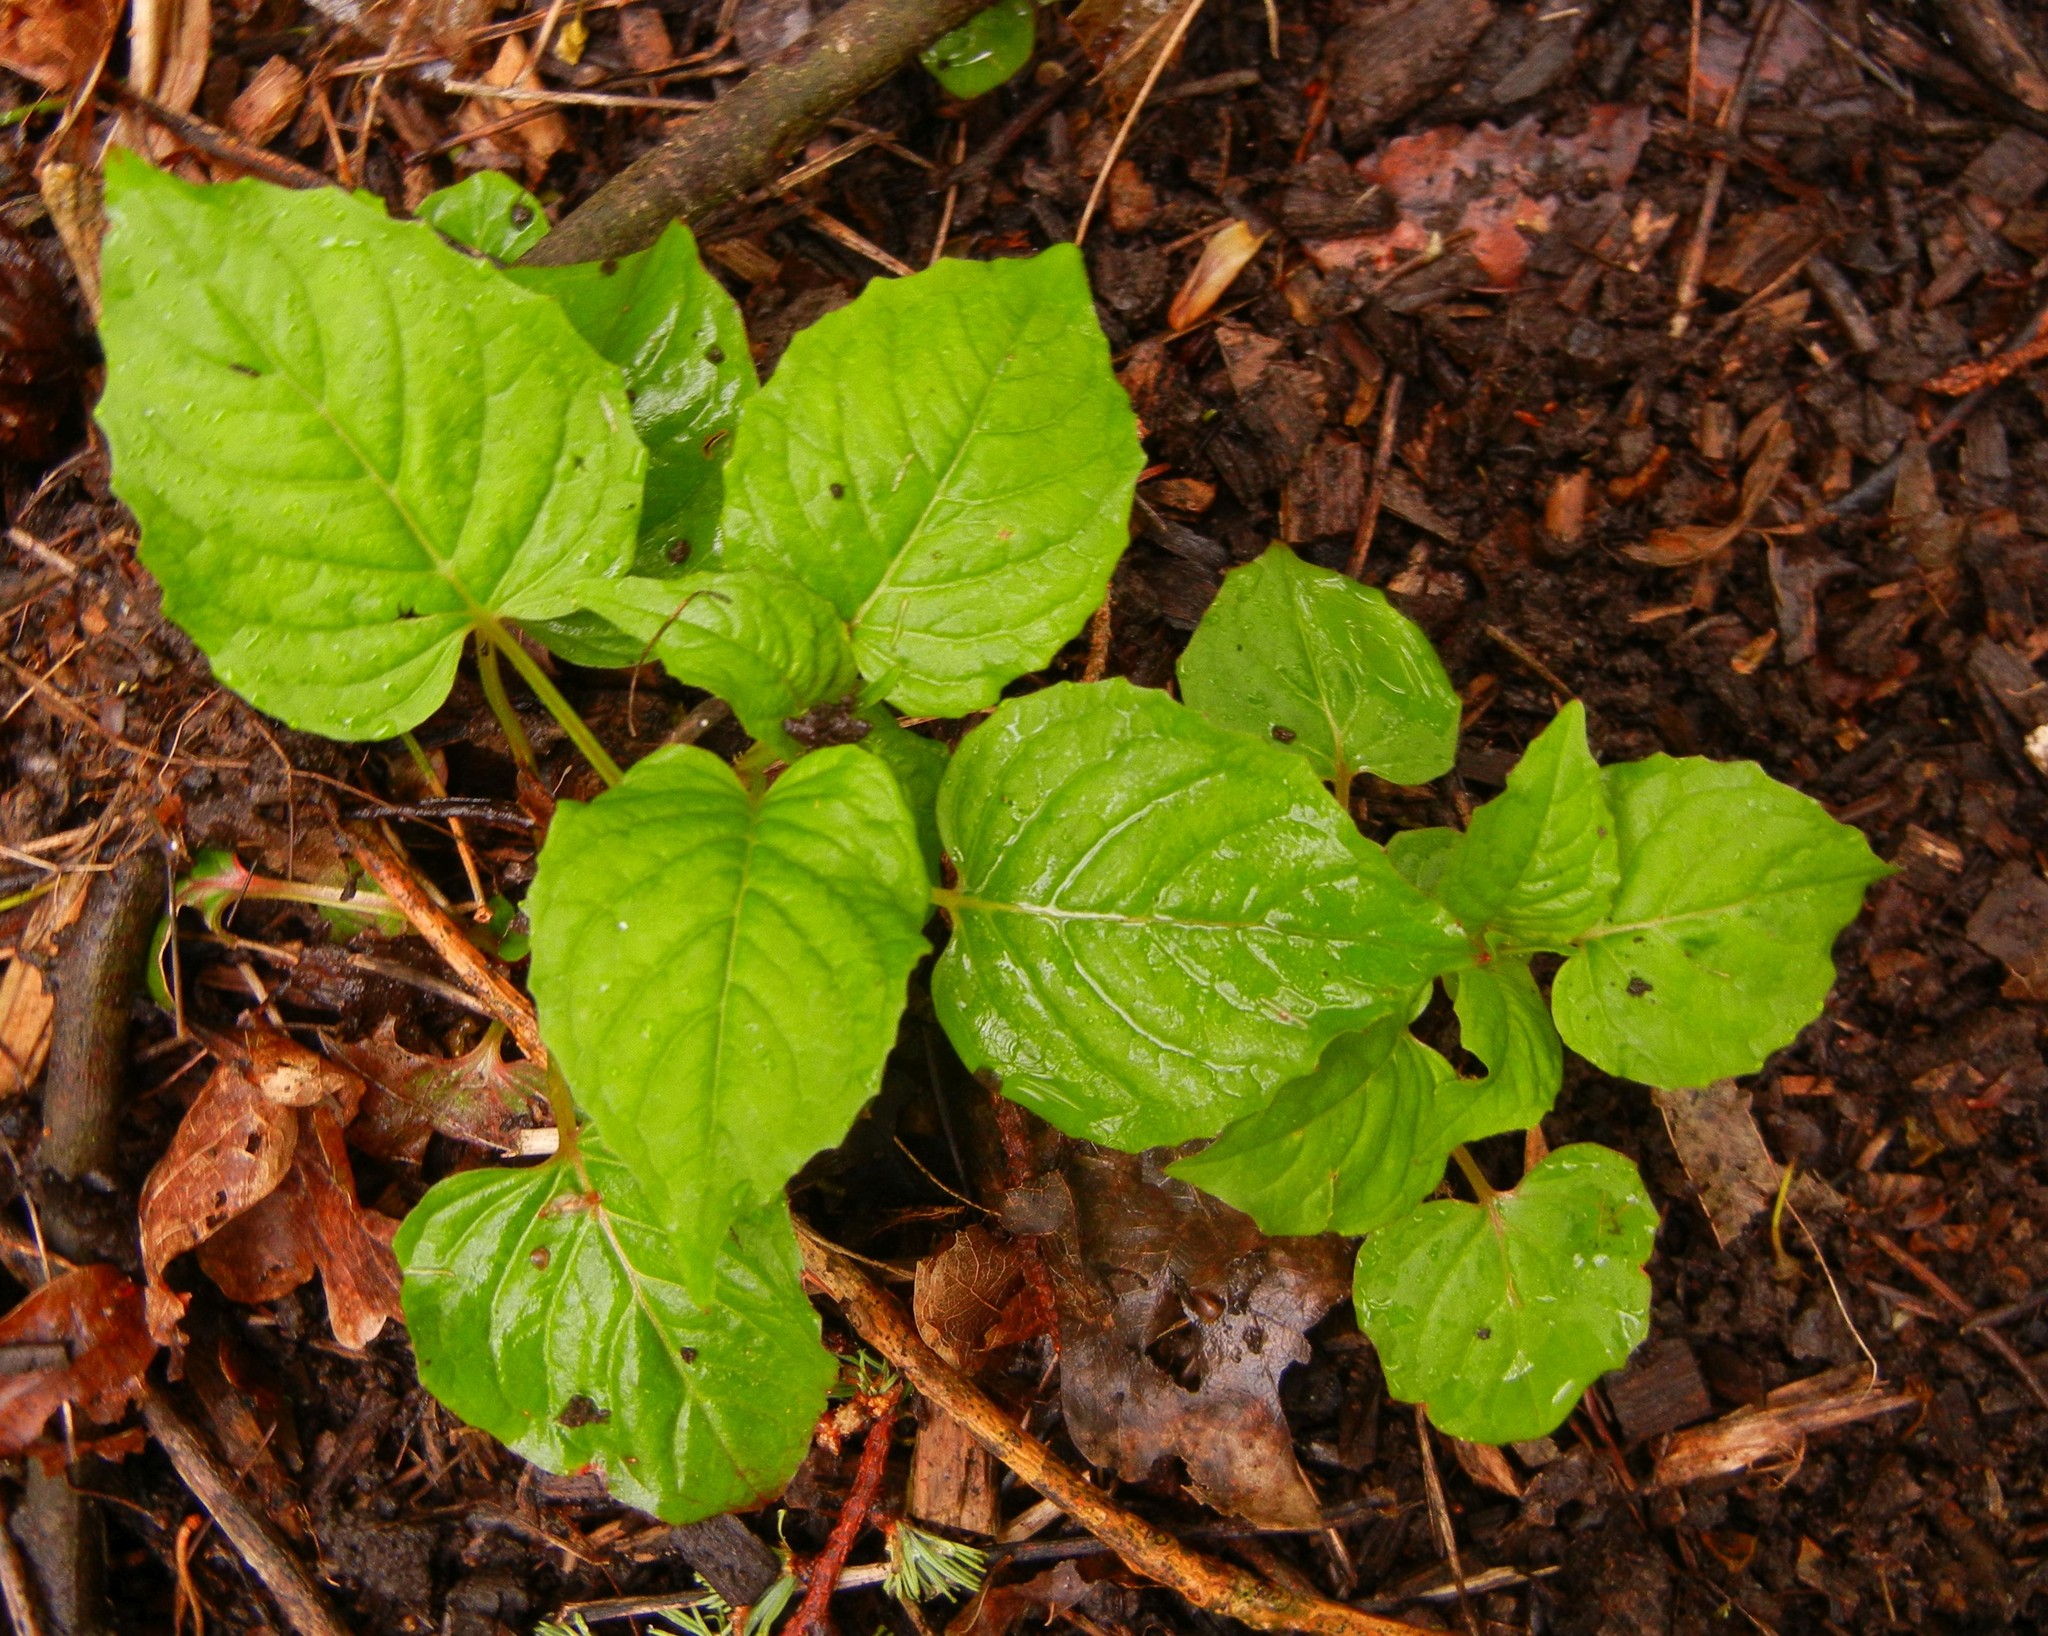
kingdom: Plantae
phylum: Tracheophyta
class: Magnoliopsida
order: Myrtales
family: Onagraceae
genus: Circaea
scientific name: Circaea lutetiana
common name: Enchanter's-nightshade
